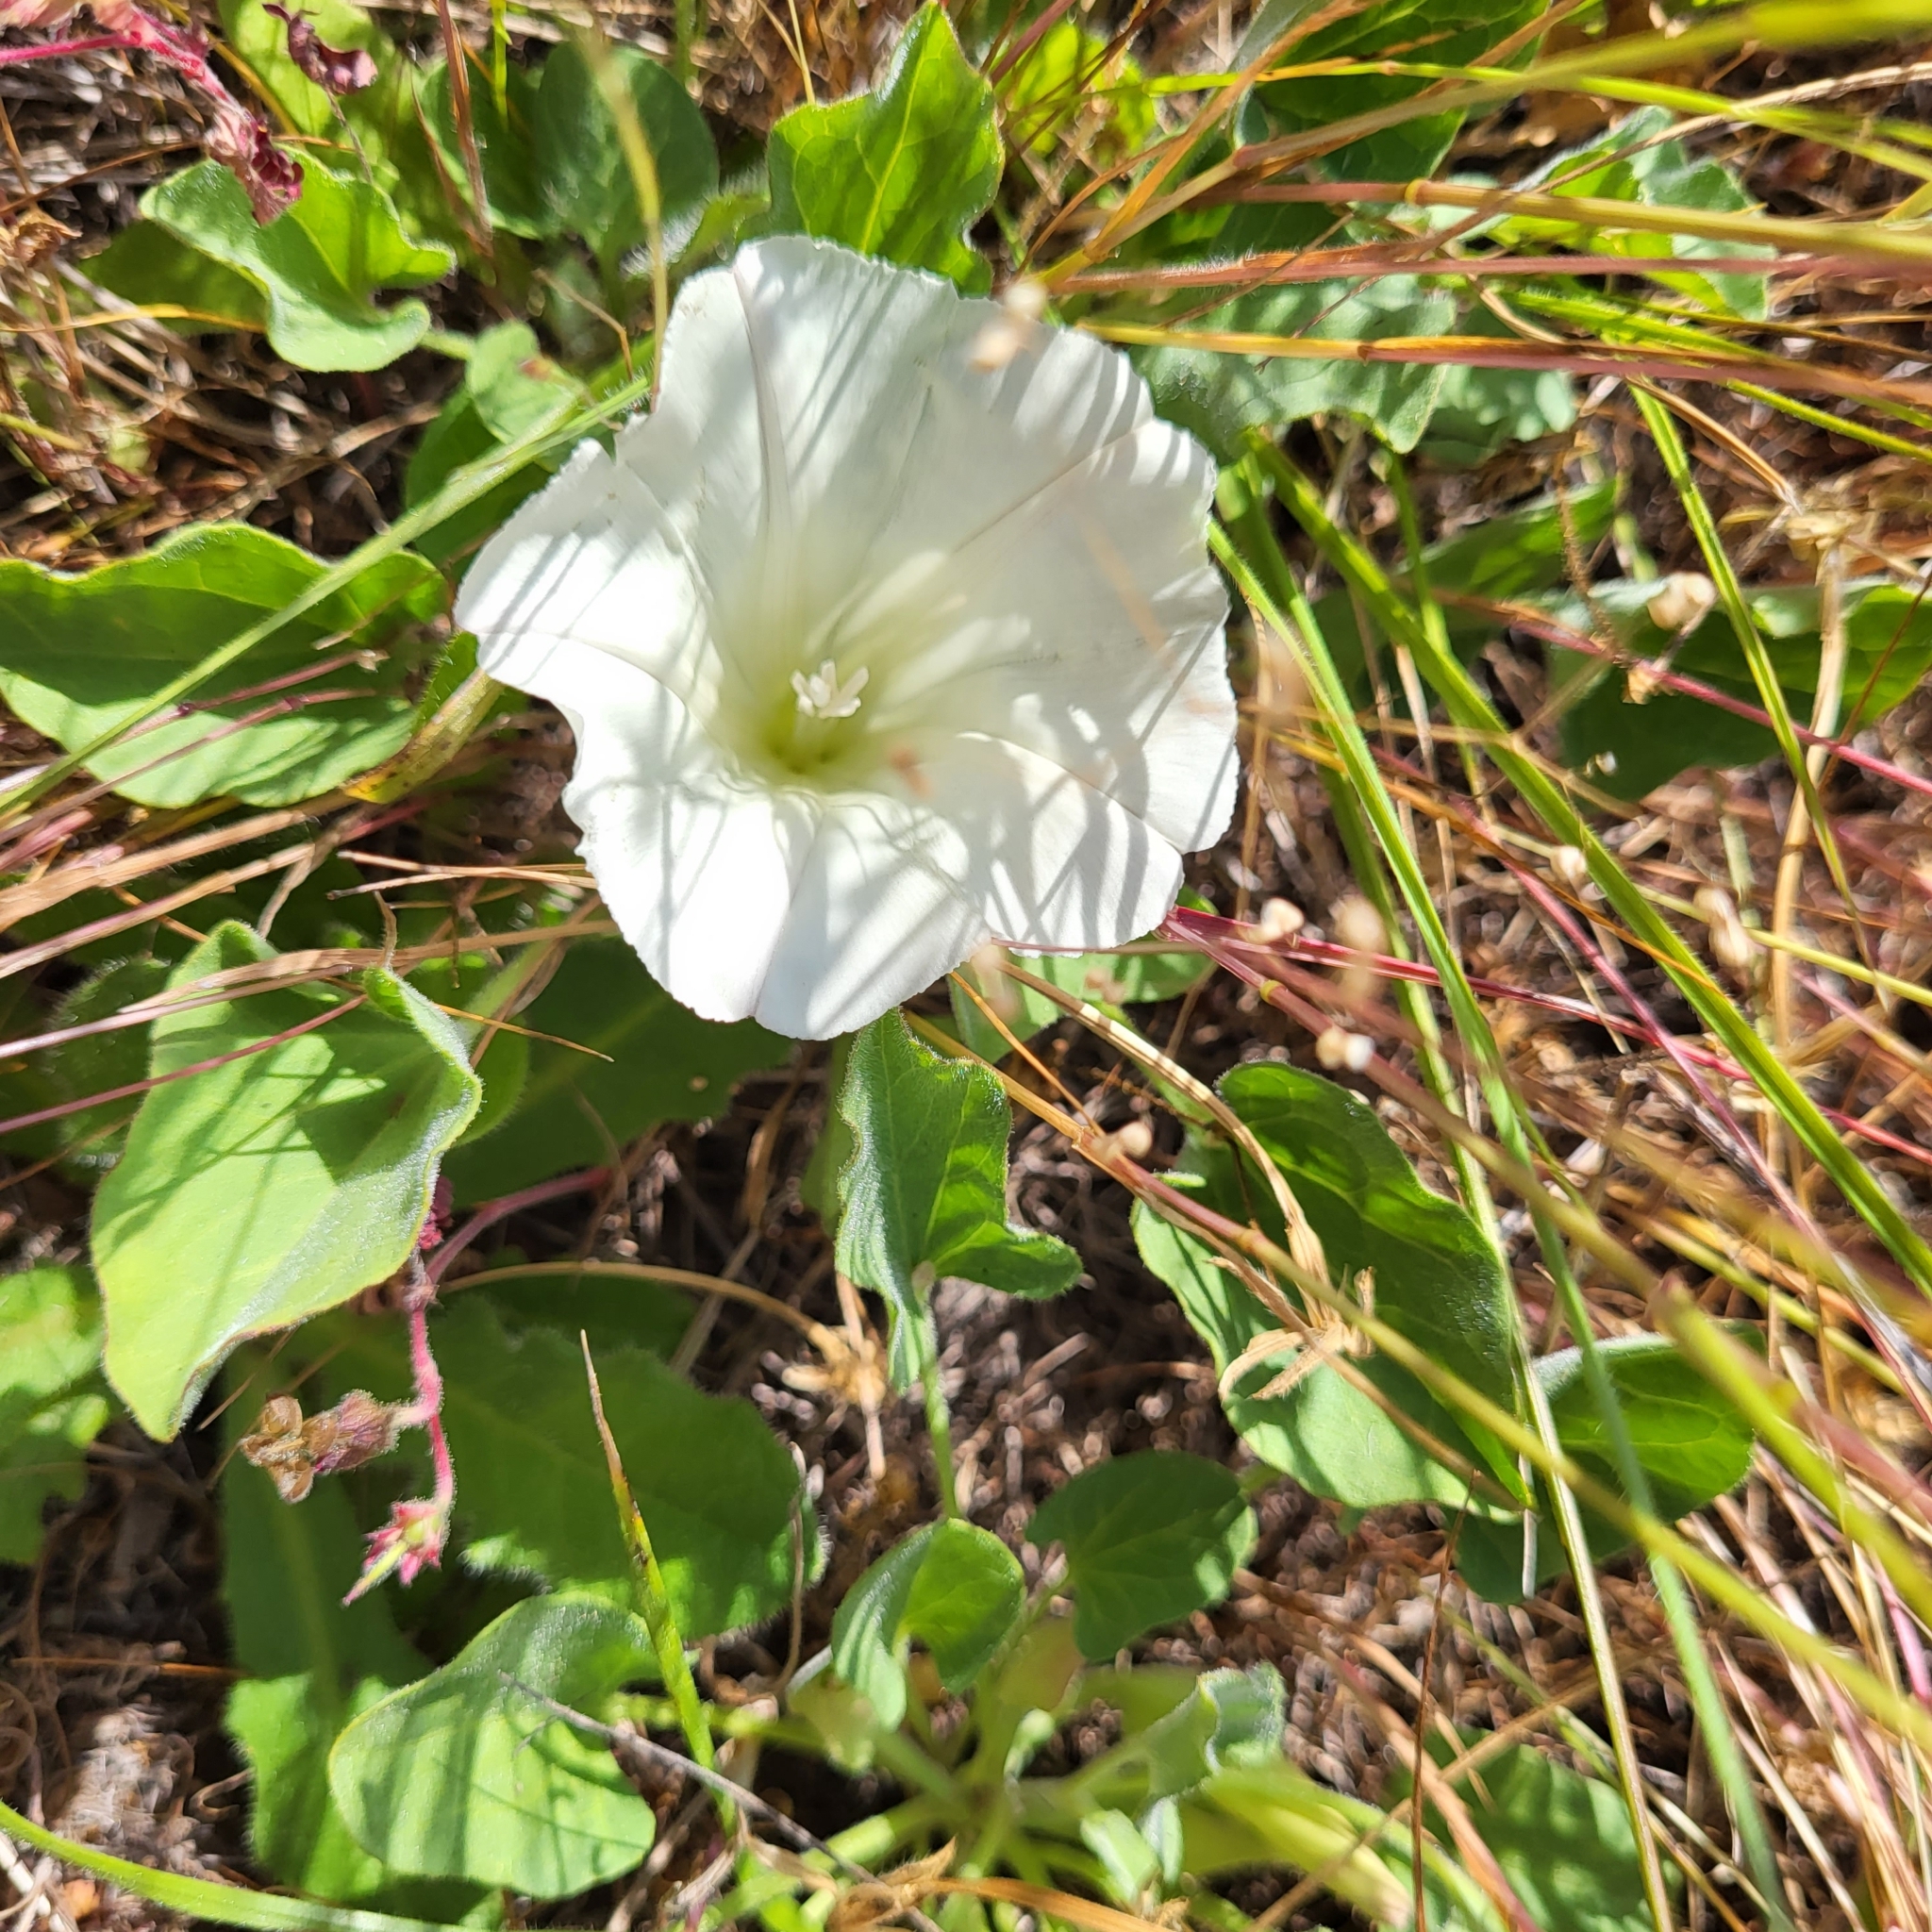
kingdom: Plantae
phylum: Tracheophyta
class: Magnoliopsida
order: Solanales
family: Convolvulaceae
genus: Calystegia
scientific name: Calystegia subacaulis
